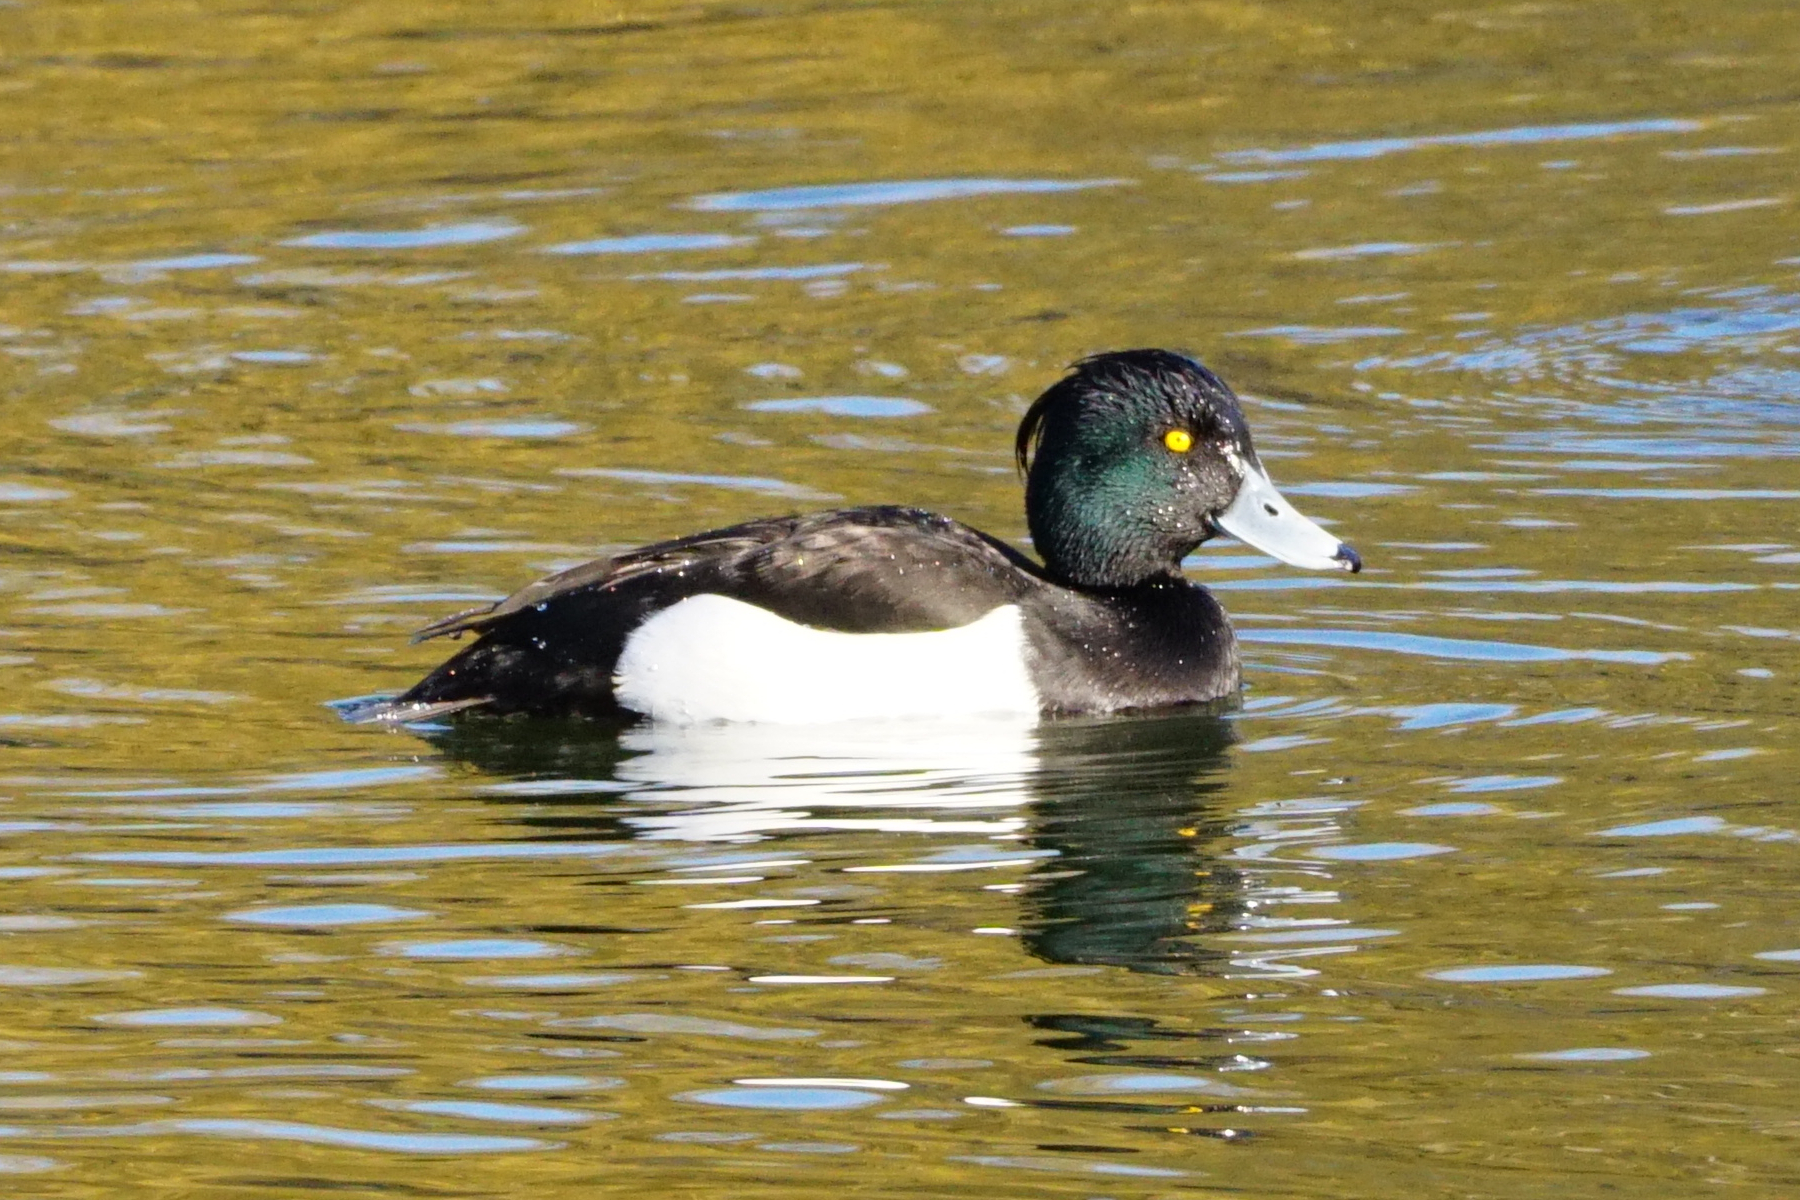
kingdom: Animalia
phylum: Chordata
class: Aves
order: Anseriformes
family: Anatidae
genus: Aythya
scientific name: Aythya fuligula
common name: Tufted duck
